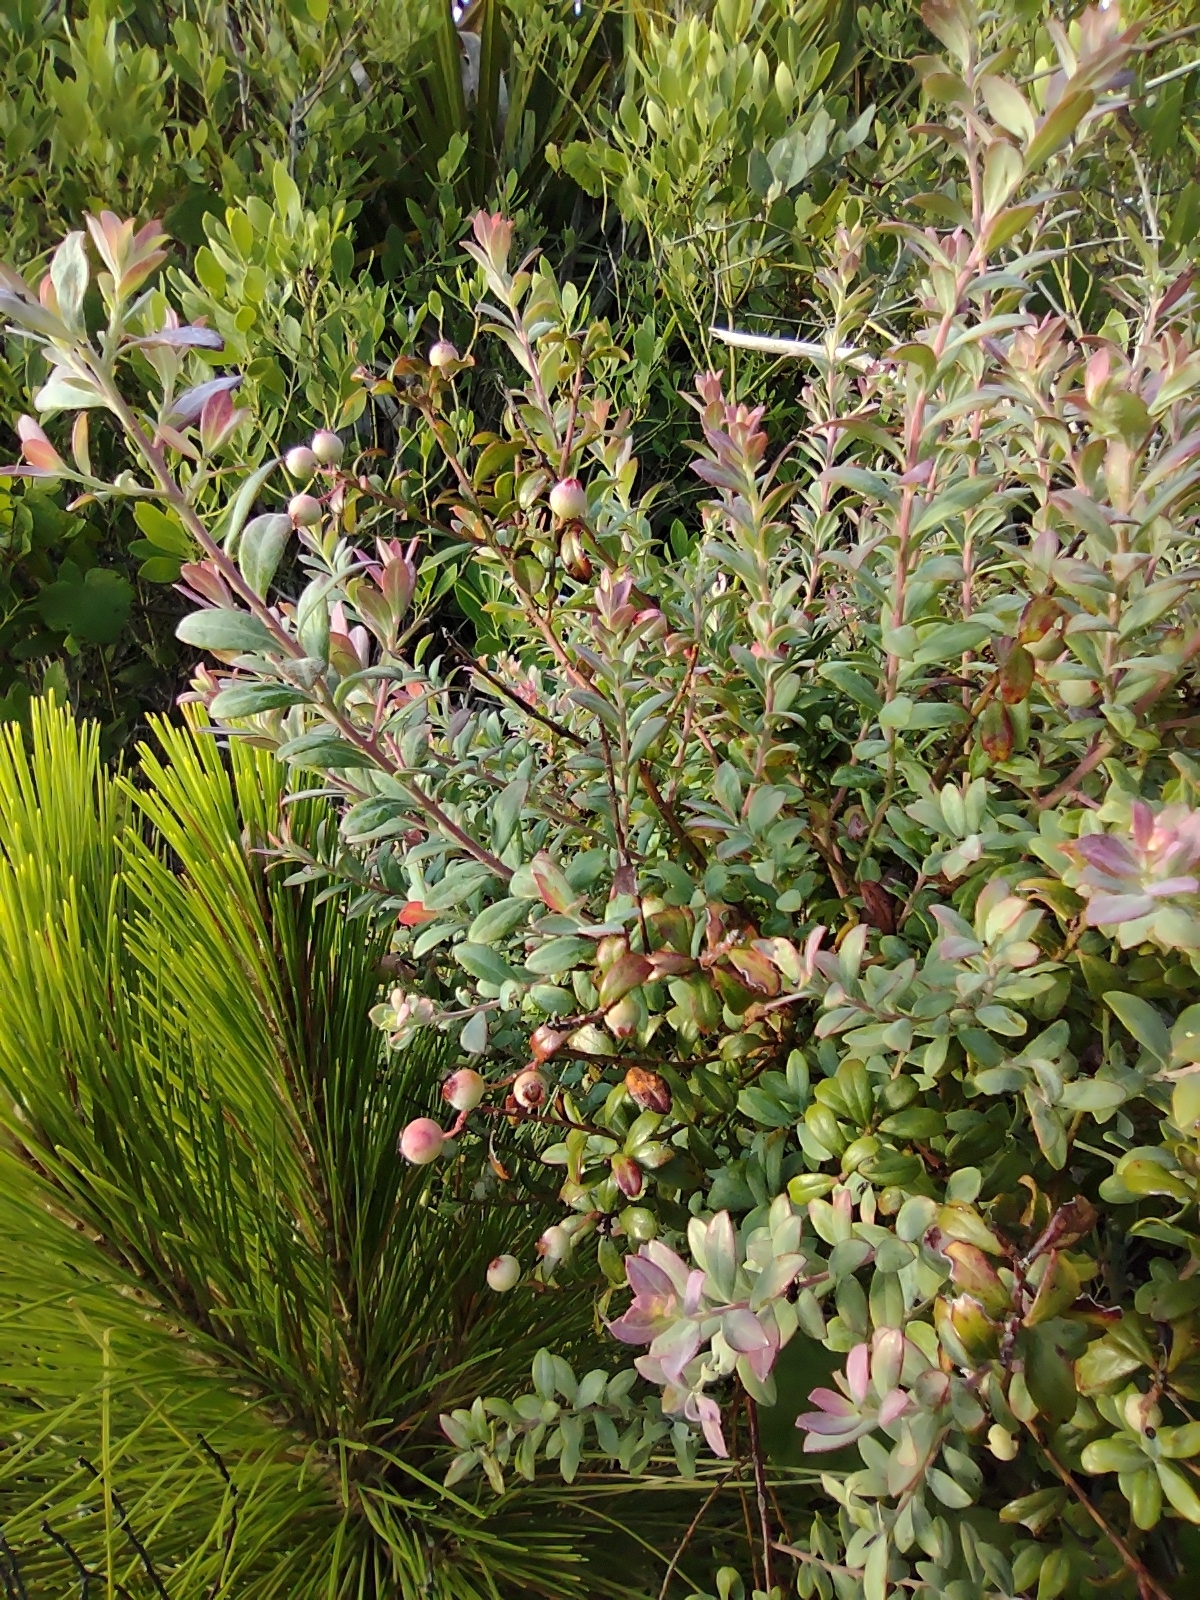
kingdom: Plantae
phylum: Tracheophyta
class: Magnoliopsida
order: Ericales
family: Ericaceae
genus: Vaccinium
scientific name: Vaccinium darrowii
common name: Darrow's blueberry
